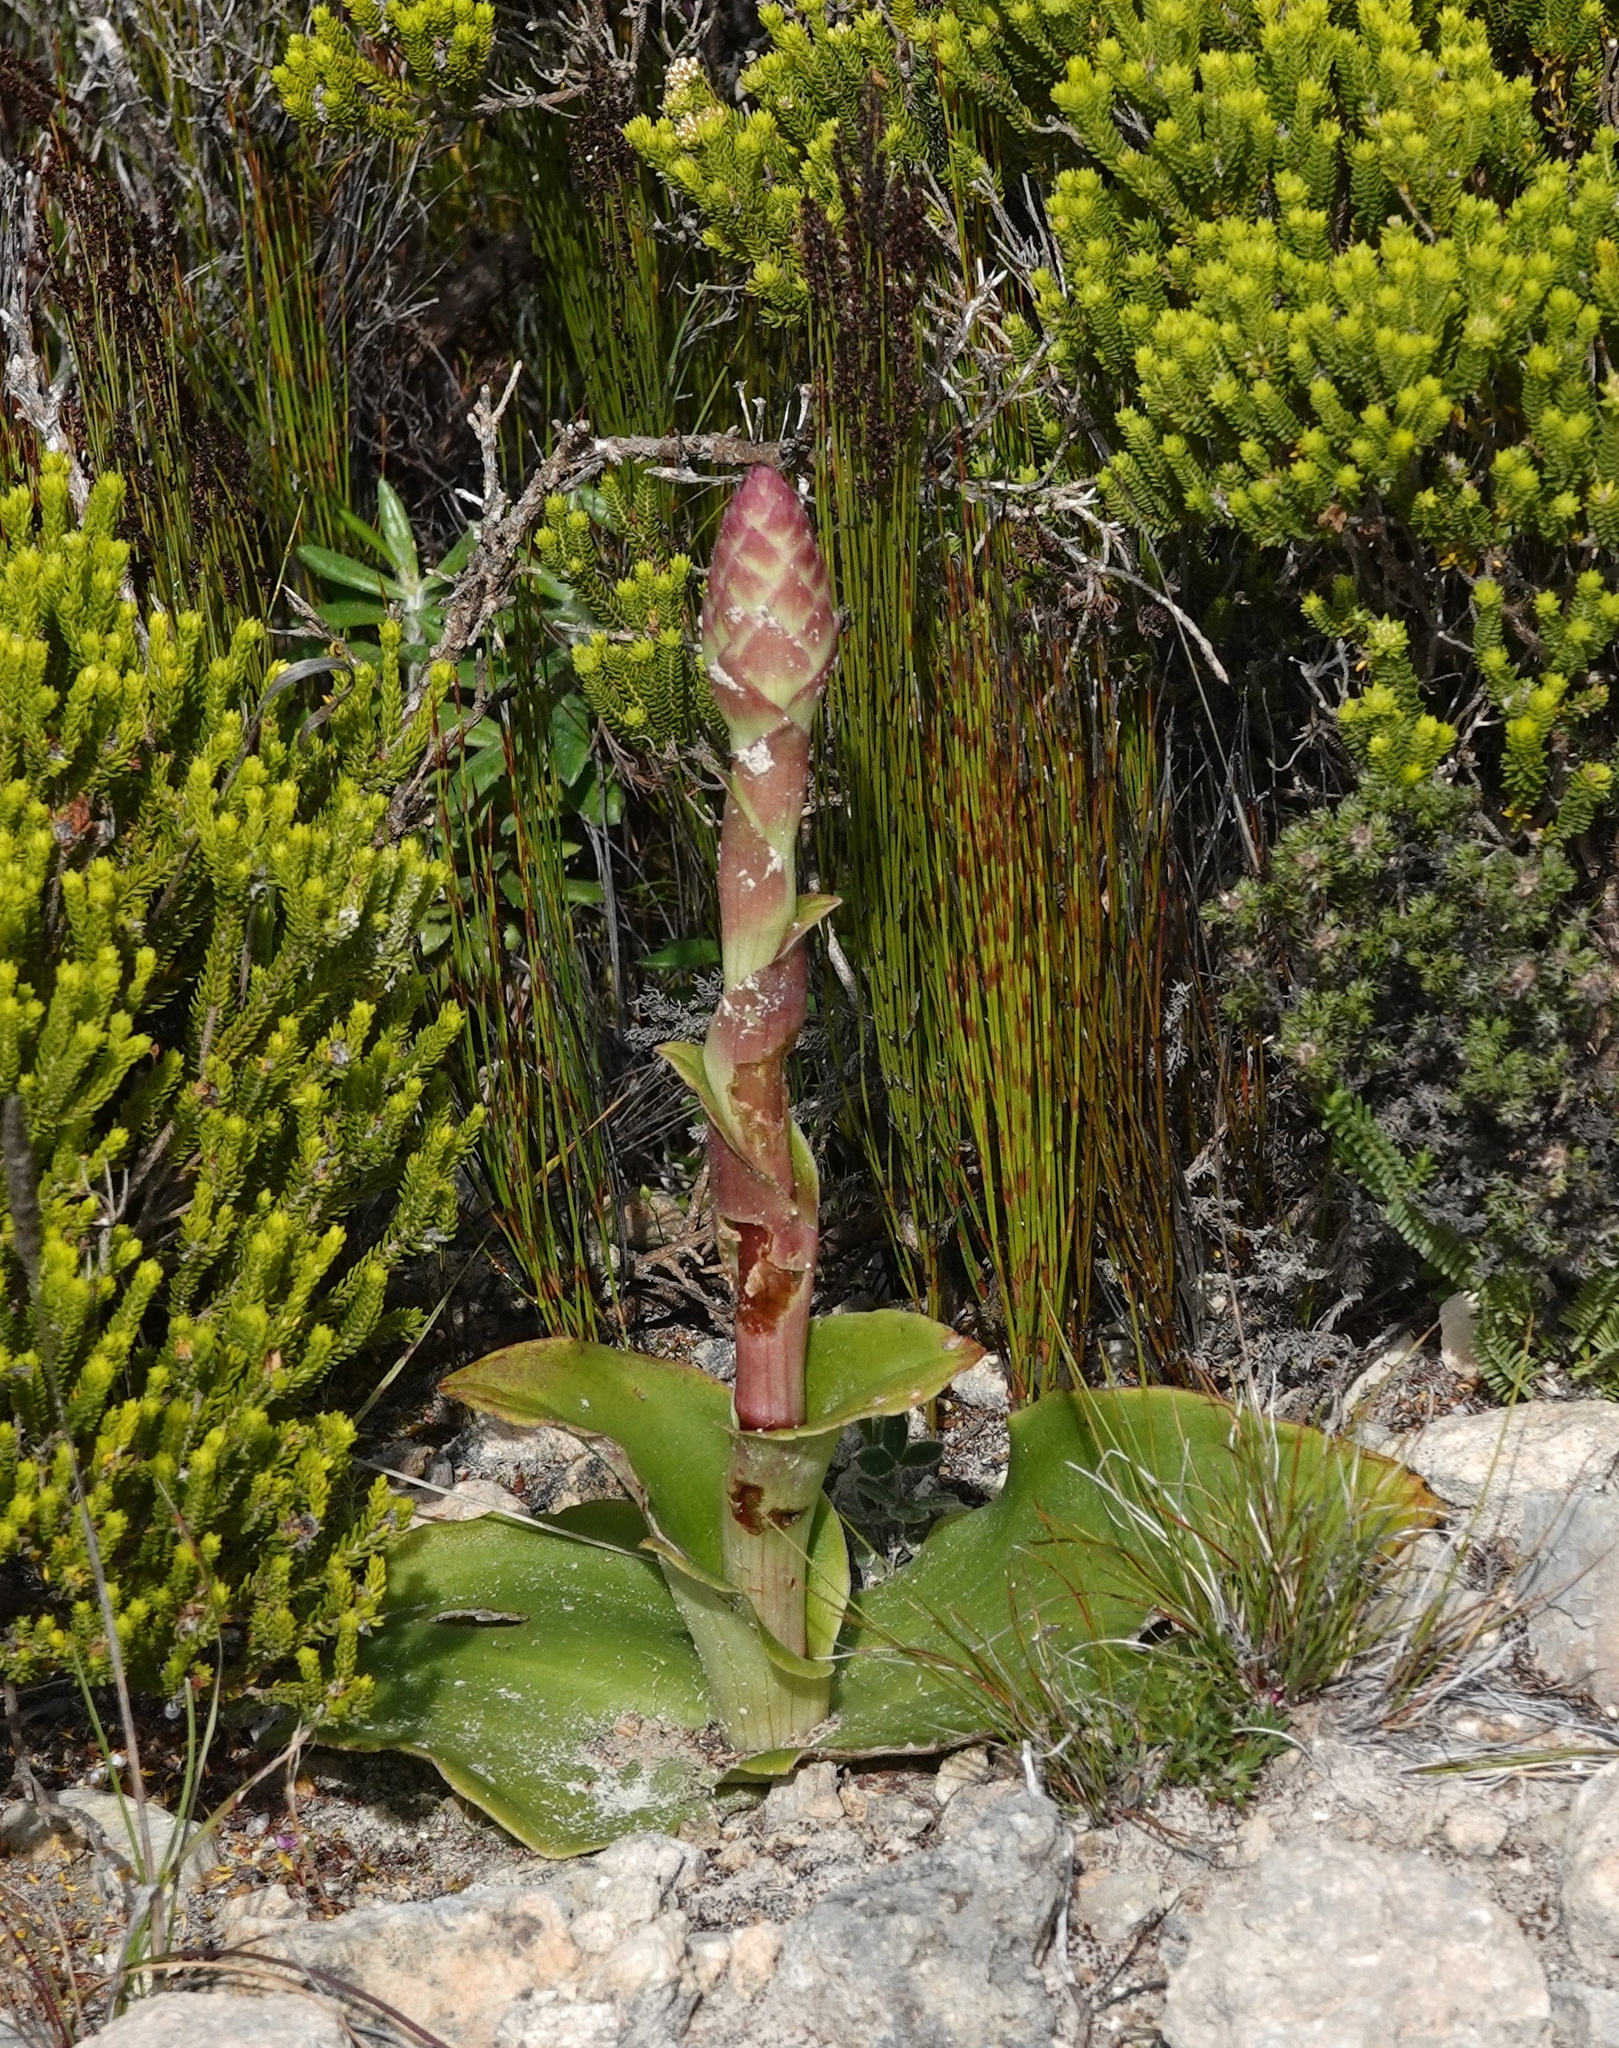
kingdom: Plantae
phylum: Tracheophyta
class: Liliopsida
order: Asparagales
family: Orchidaceae
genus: Satyrium
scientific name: Satyrium carneum
